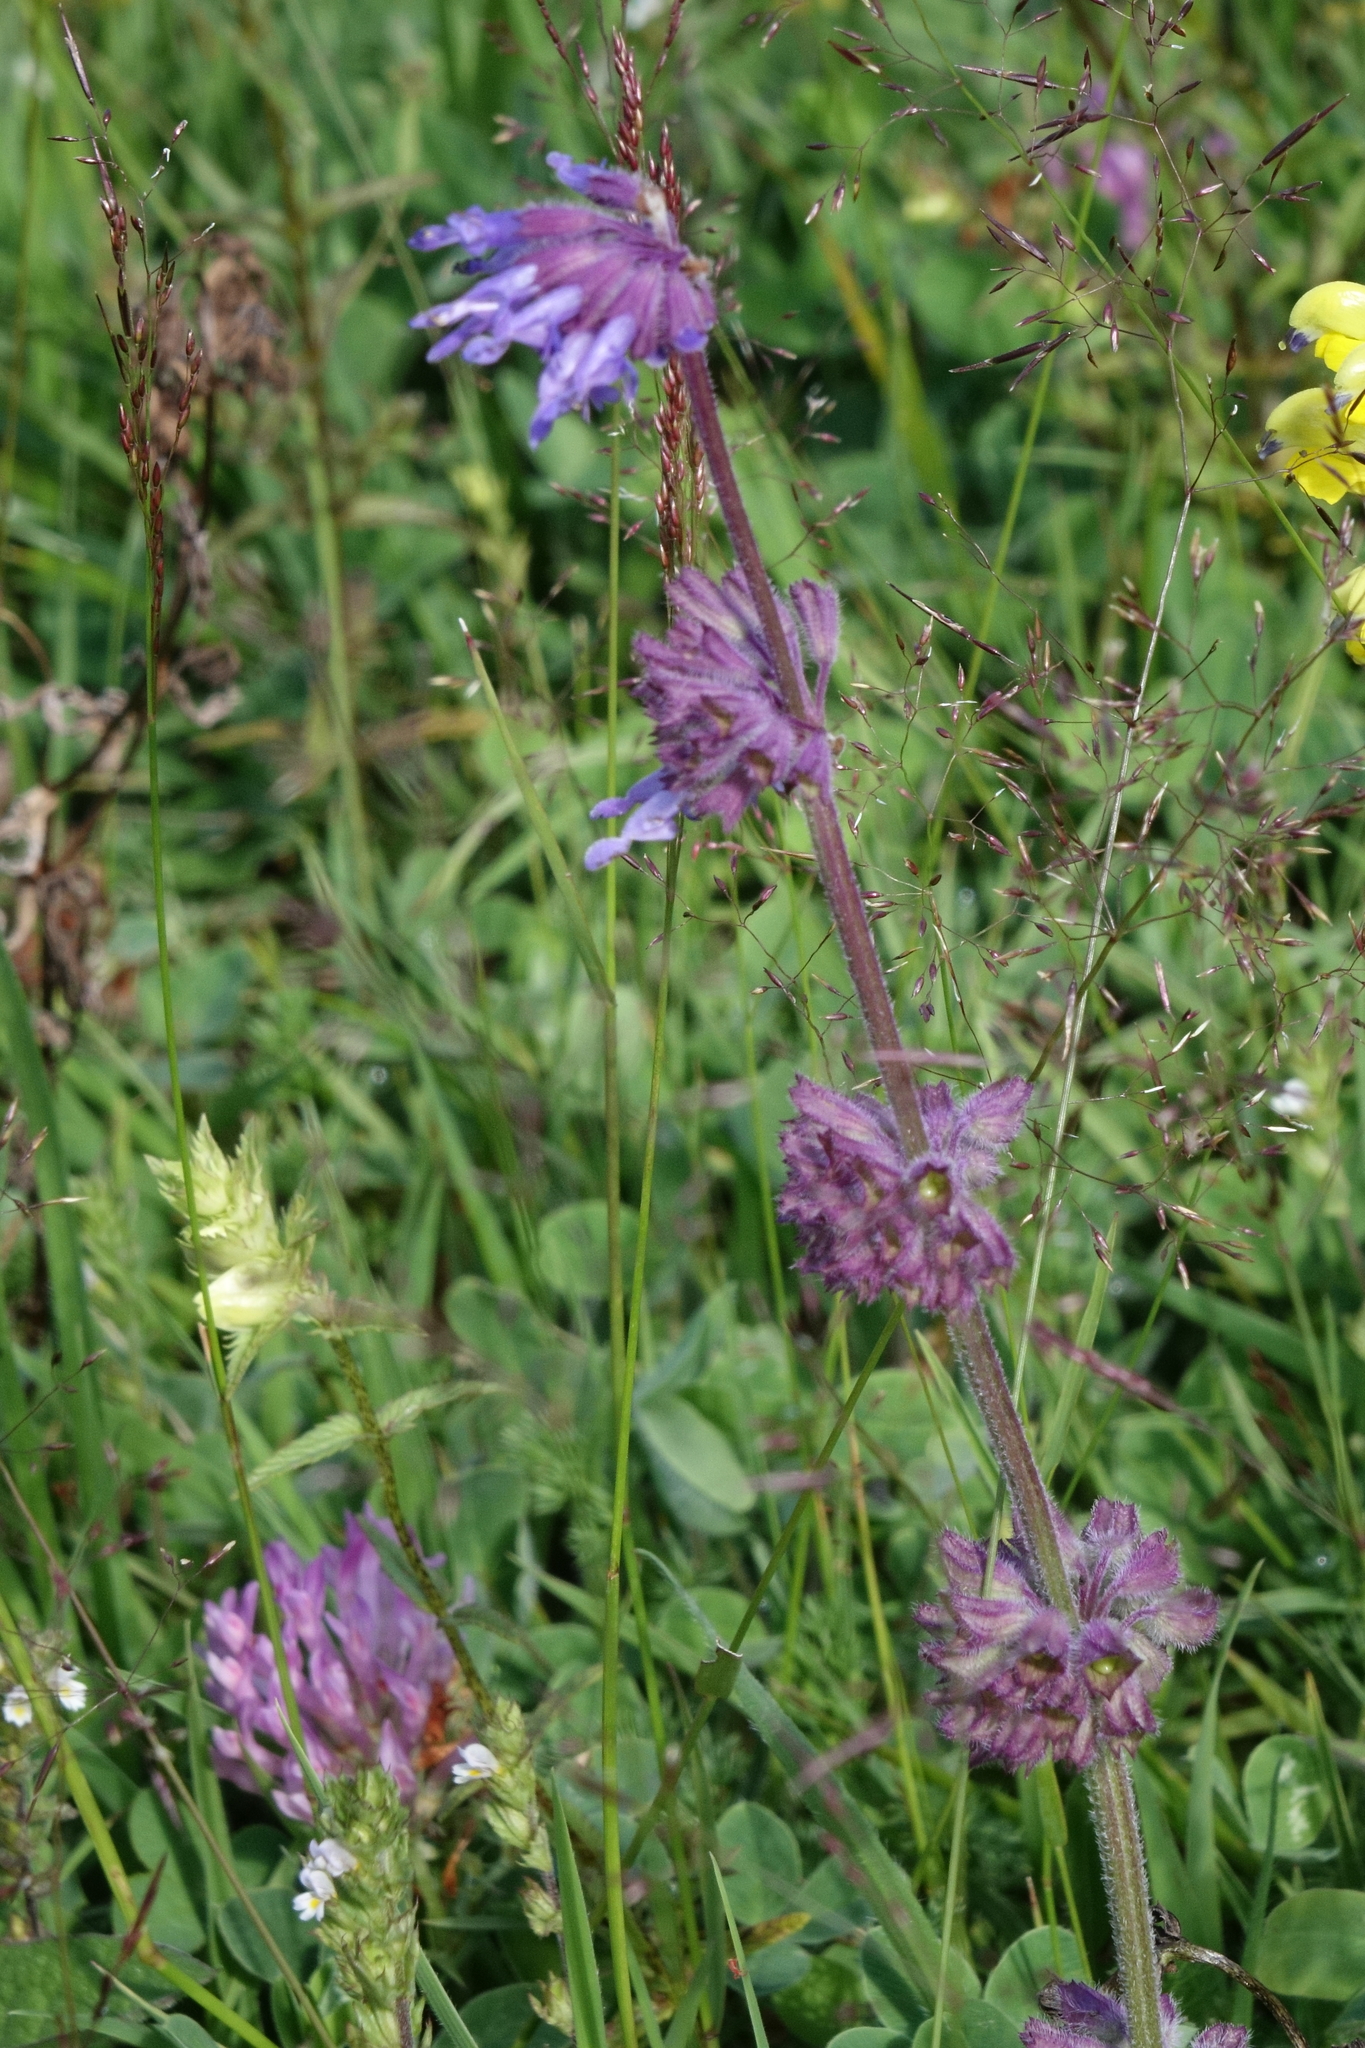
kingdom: Plantae
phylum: Tracheophyta
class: Magnoliopsida
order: Lamiales
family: Lamiaceae
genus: Salvia
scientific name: Salvia verticillata
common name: Whorled clary
